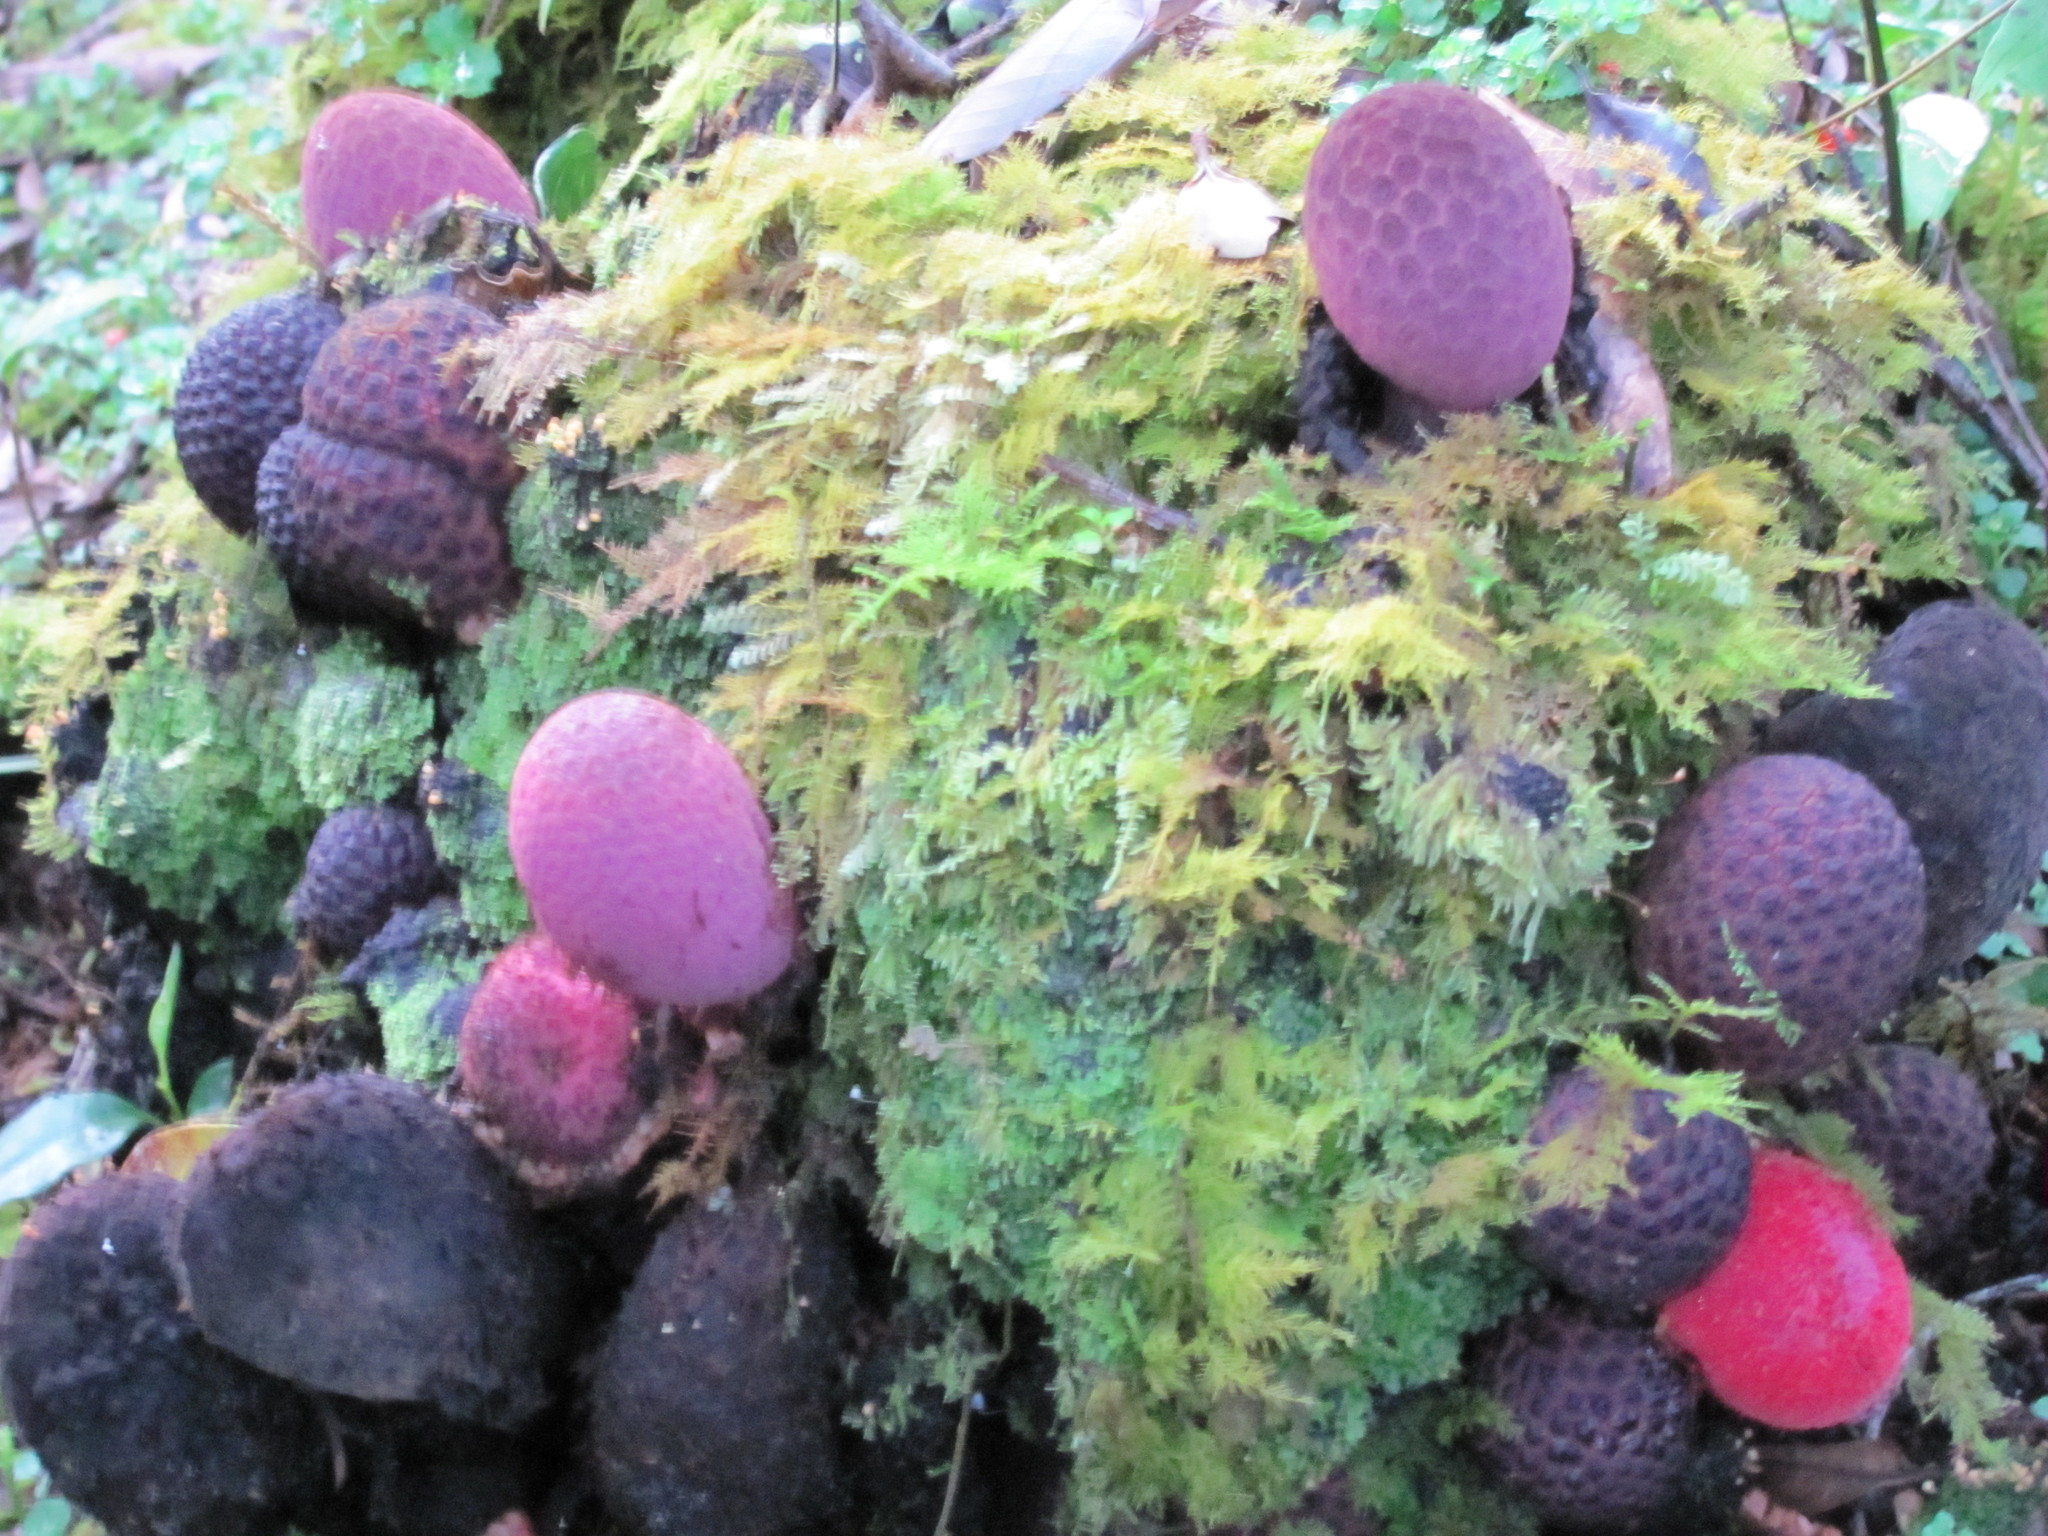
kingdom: Plantae
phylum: Tracheophyta
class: Magnoliopsida
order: Santalales
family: Balanophoraceae
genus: Corynaea
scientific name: Corynaea crassa
